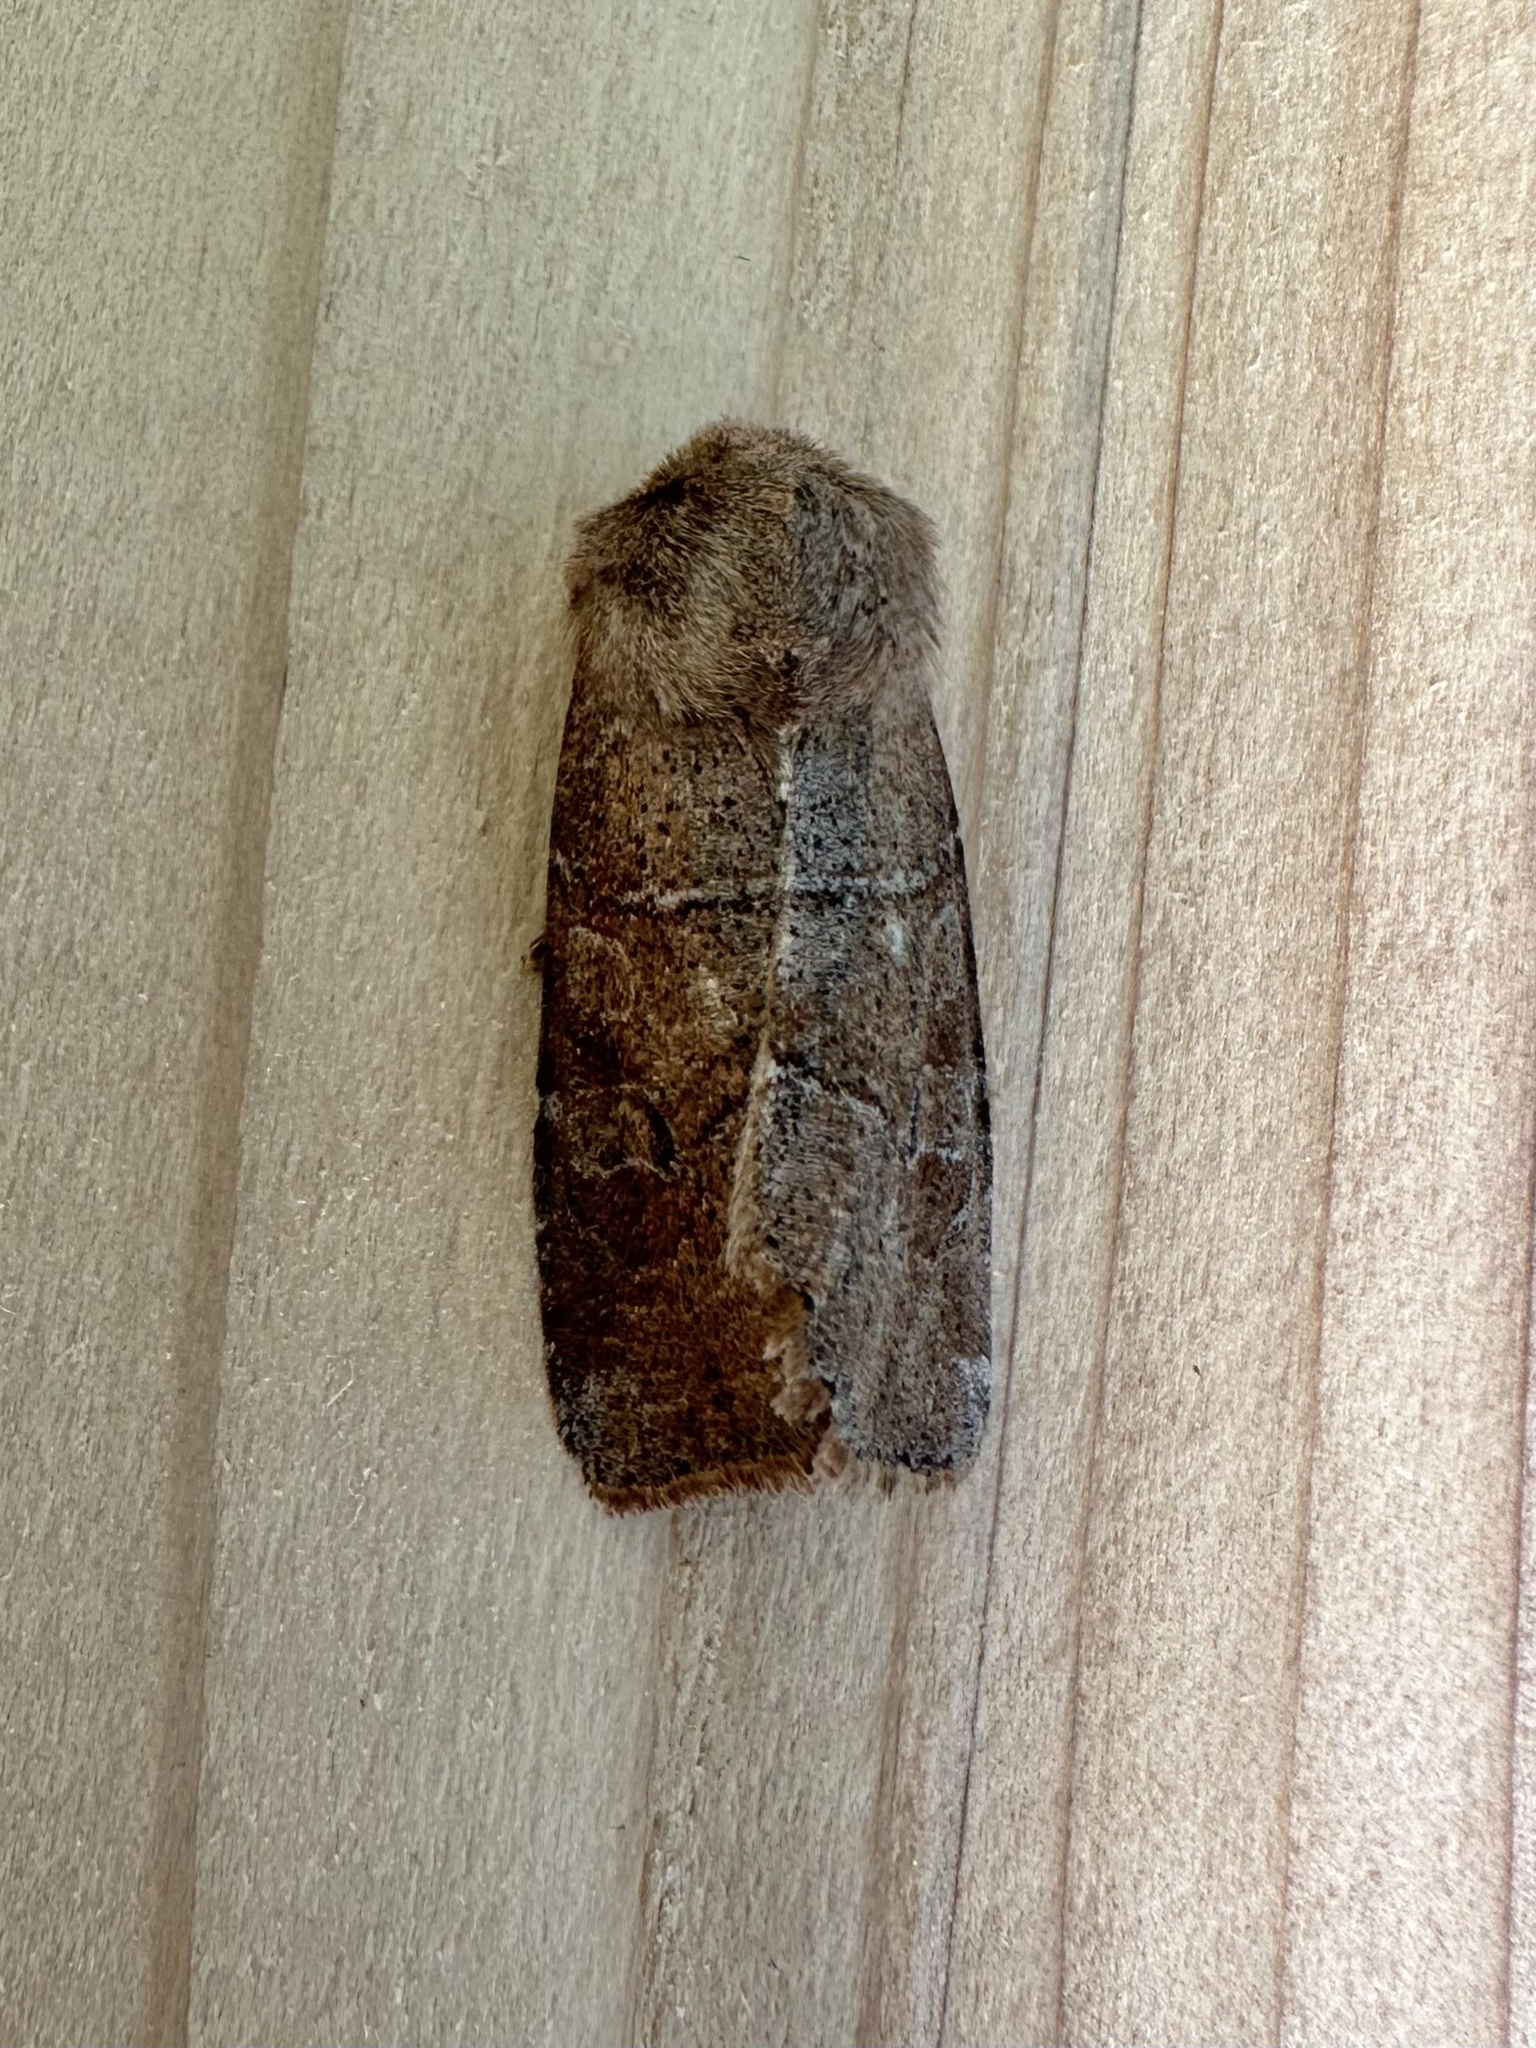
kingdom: Animalia
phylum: Arthropoda
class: Insecta
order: Lepidoptera
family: Noctuidae
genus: Crocigrapha
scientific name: Crocigrapha normani
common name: Norman's quaker
